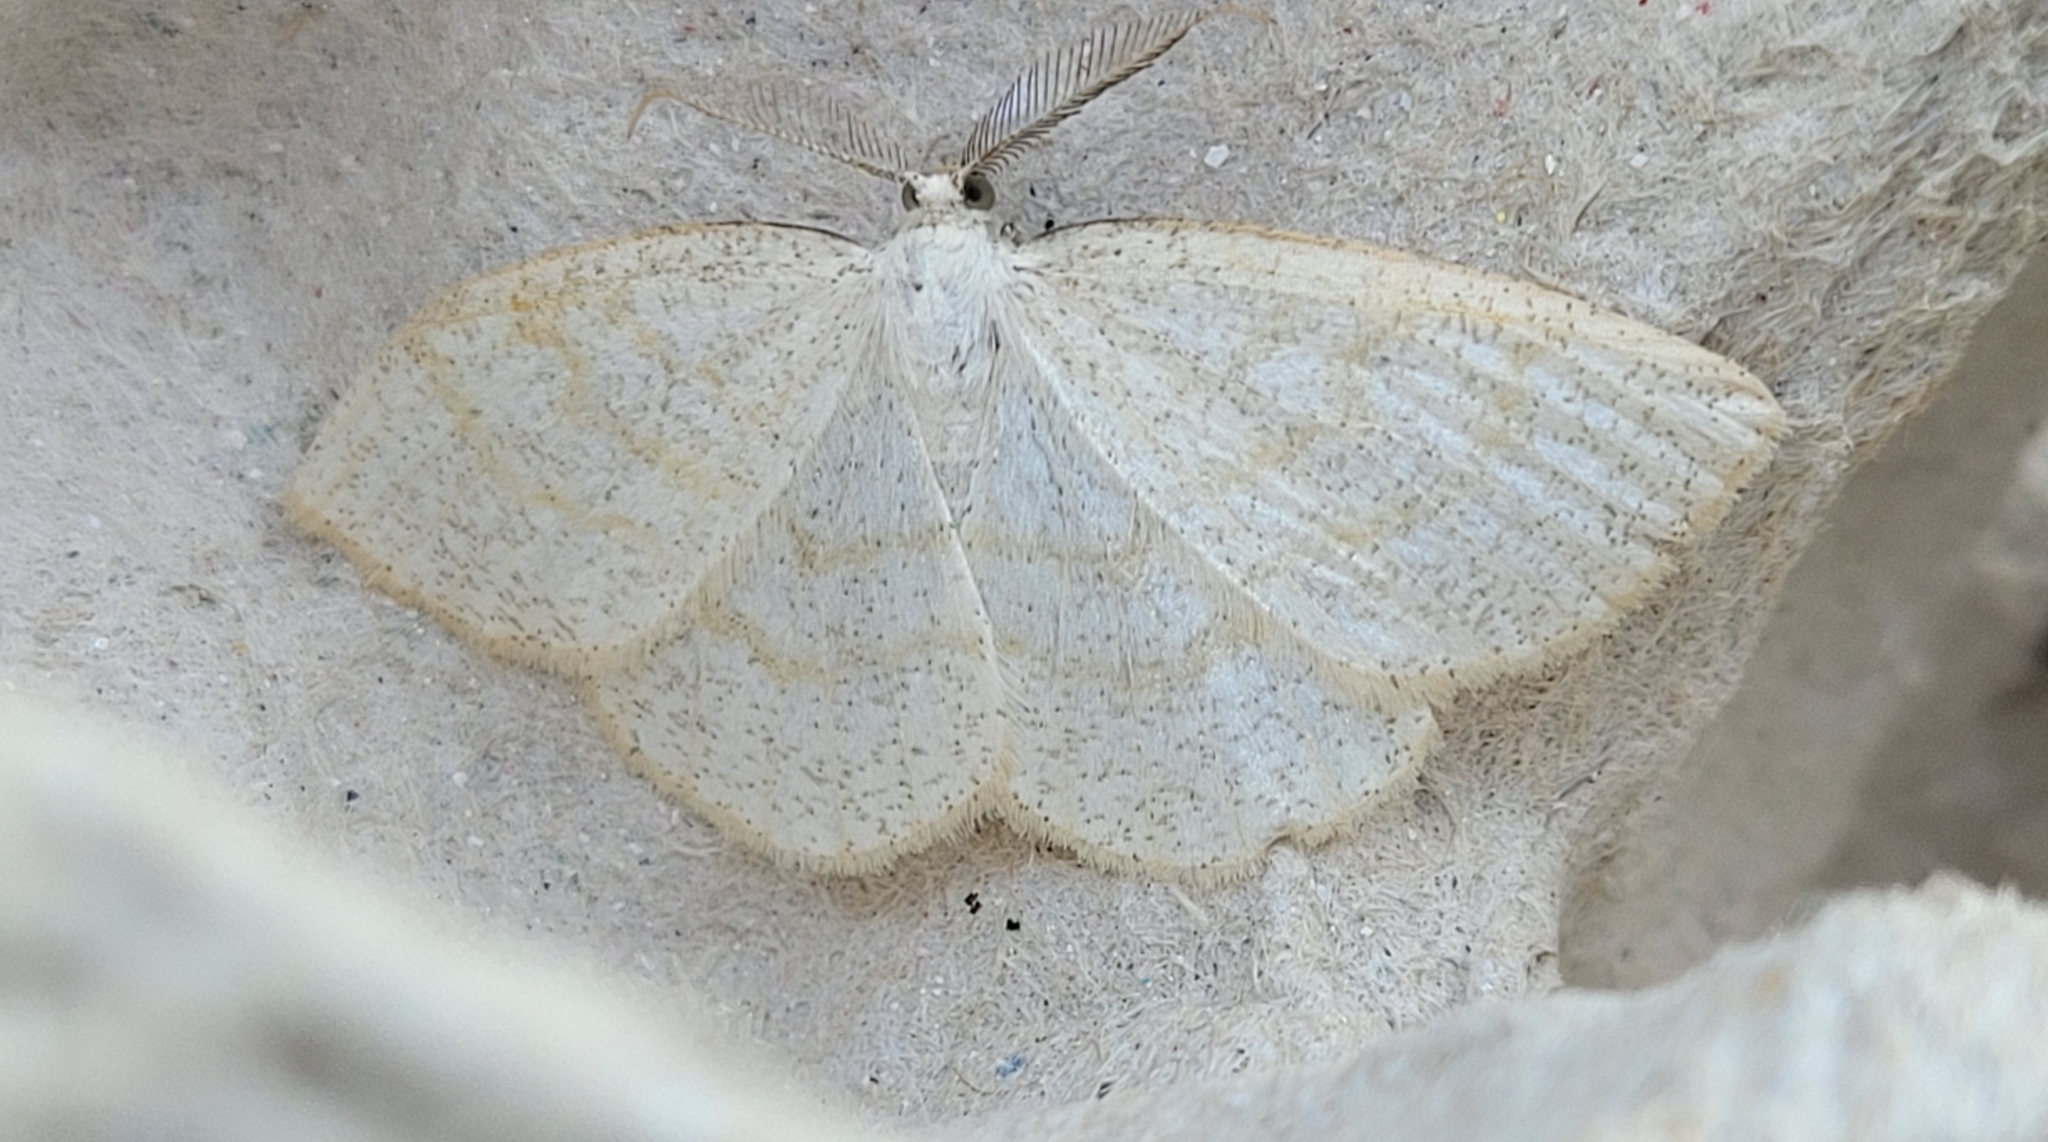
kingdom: Animalia
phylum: Arthropoda
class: Insecta
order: Lepidoptera
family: Geometridae
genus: Cabera
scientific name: Cabera exanthemata
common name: Common wave
